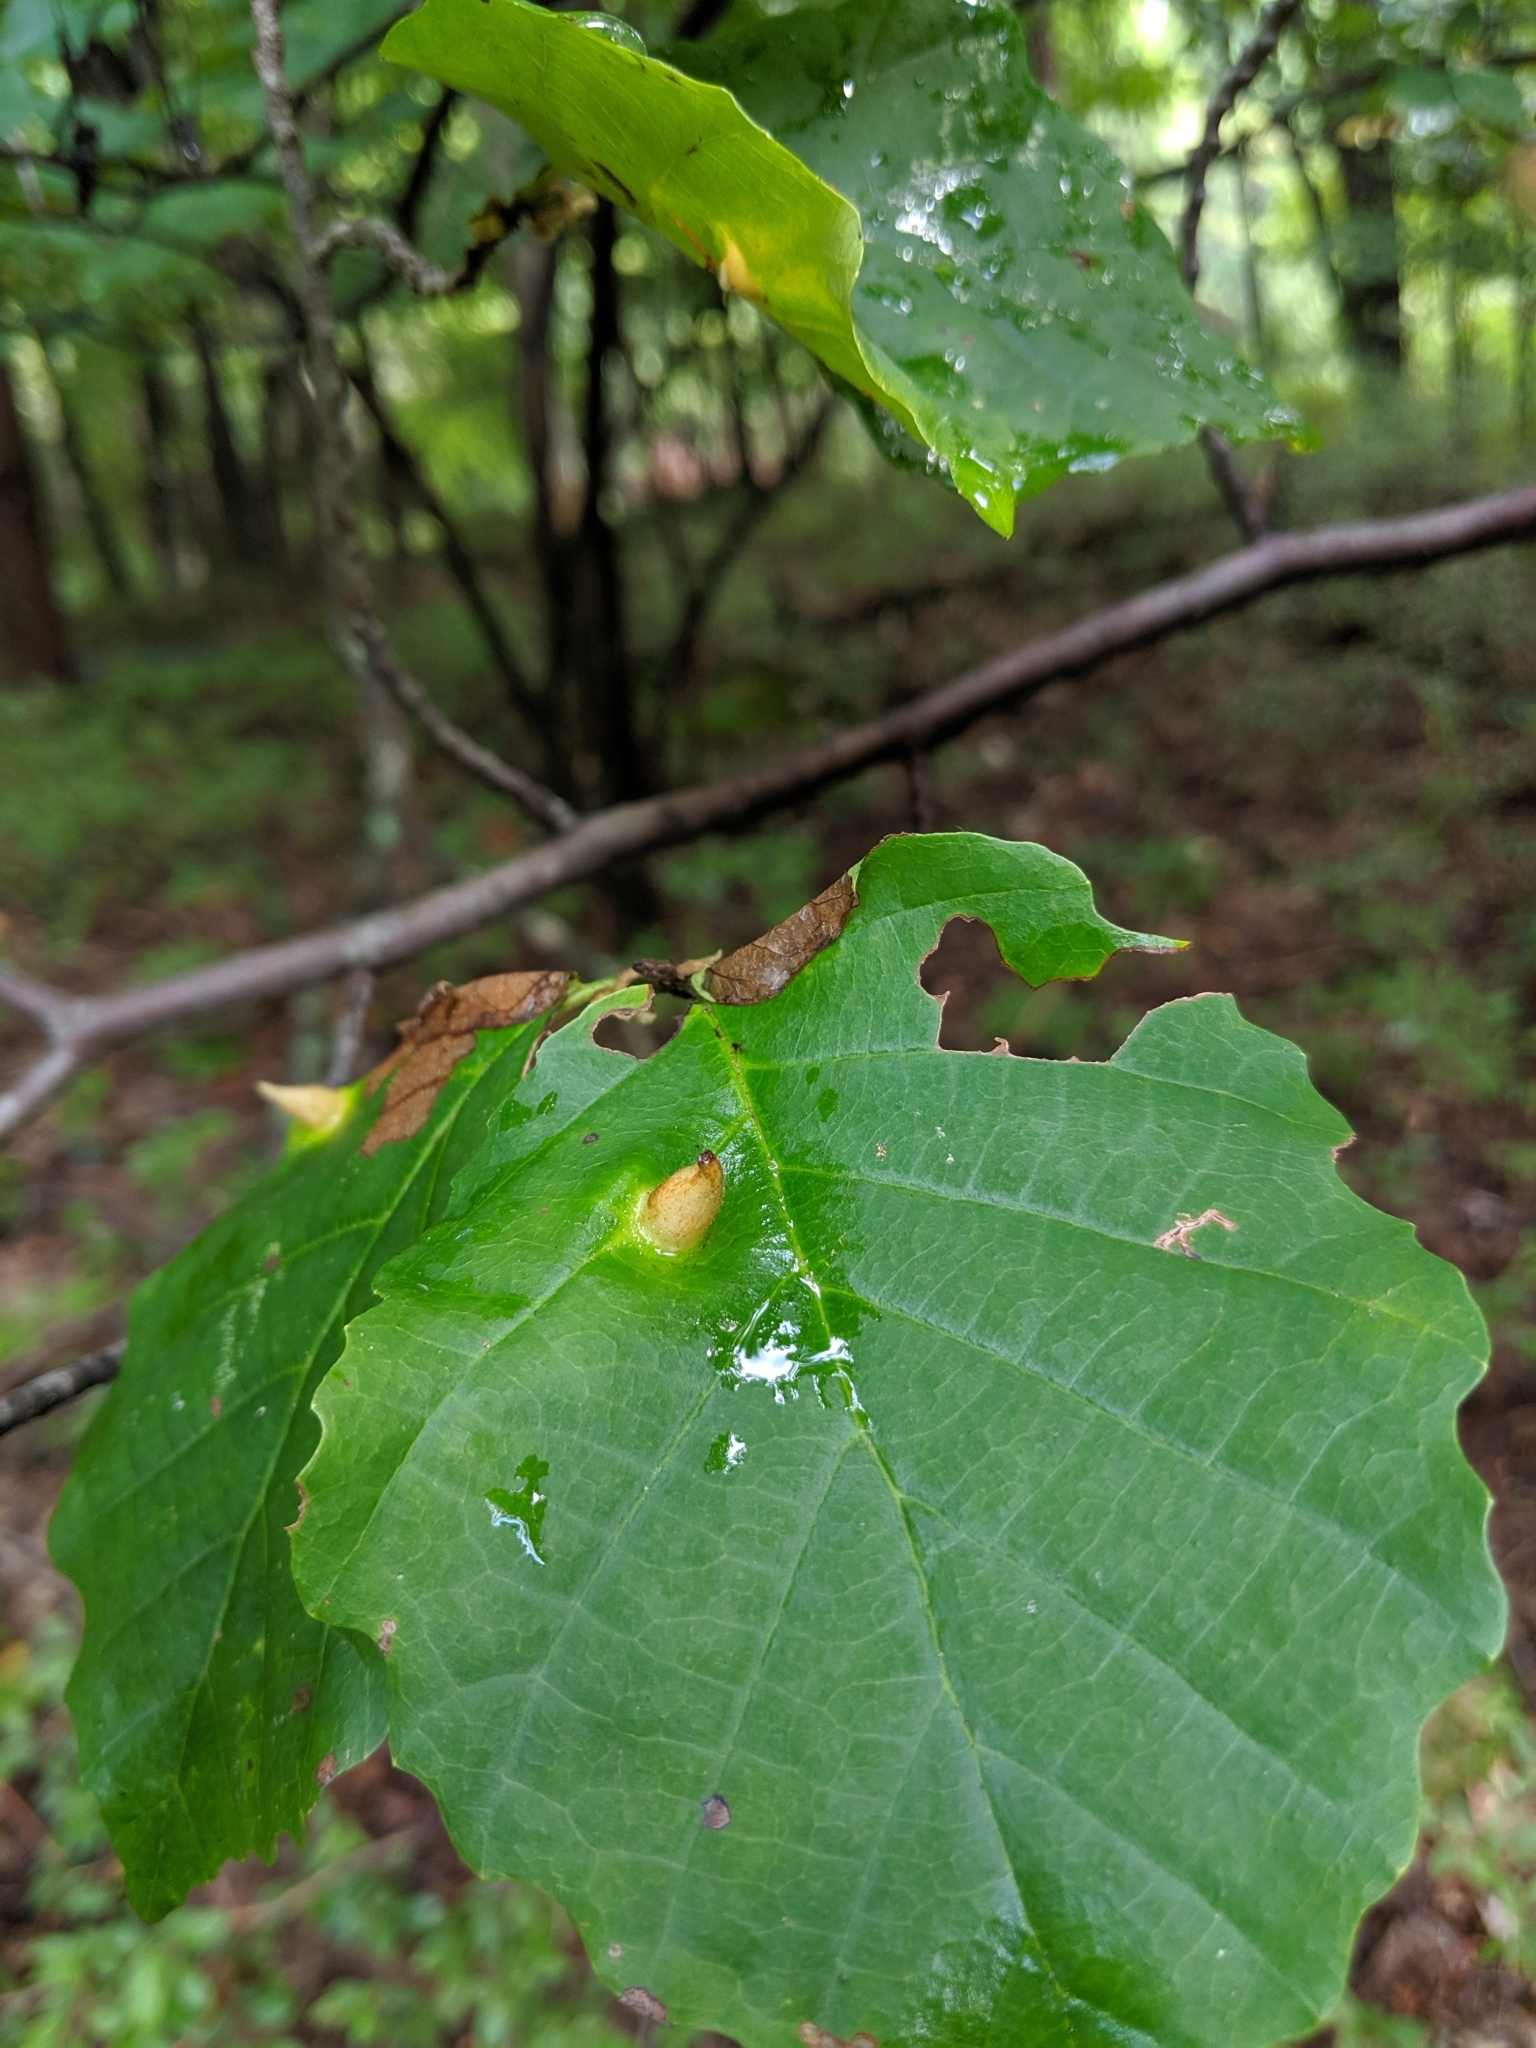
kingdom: Animalia
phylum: Arthropoda
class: Insecta
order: Hemiptera
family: Aphididae
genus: Hormaphis
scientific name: Hormaphis hamamelidis
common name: Witch-hazel cone gall aphid
